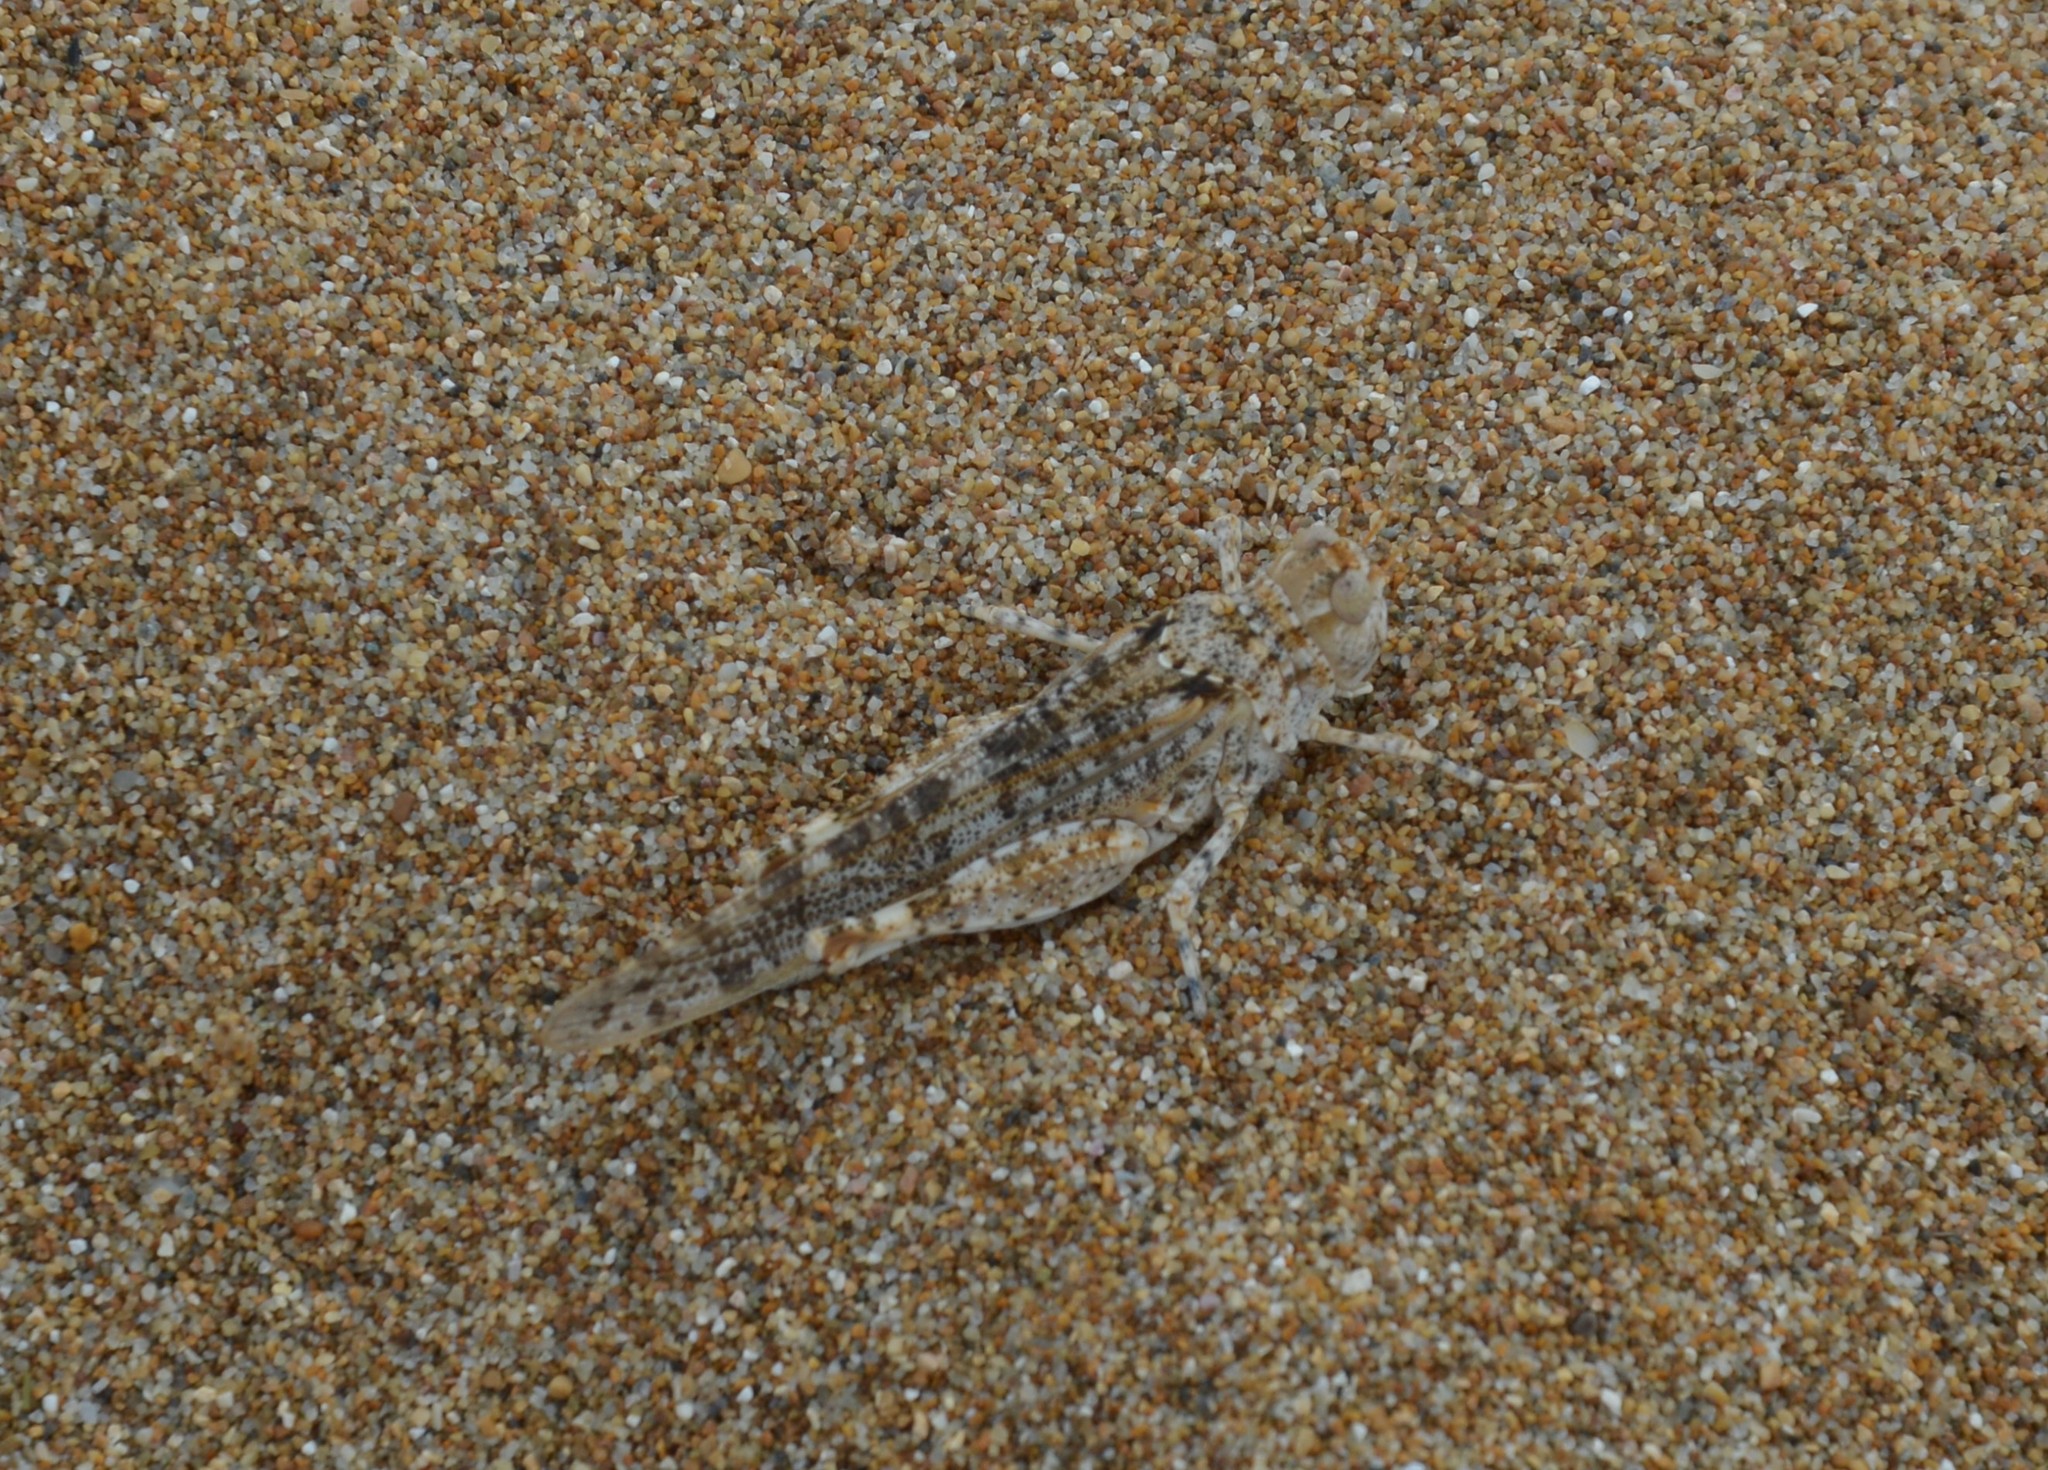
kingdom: Animalia
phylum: Arthropoda
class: Insecta
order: Orthoptera
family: Acrididae
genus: Sphingonotus
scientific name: Sphingonotus personatus
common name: Italian sand grasshopper
